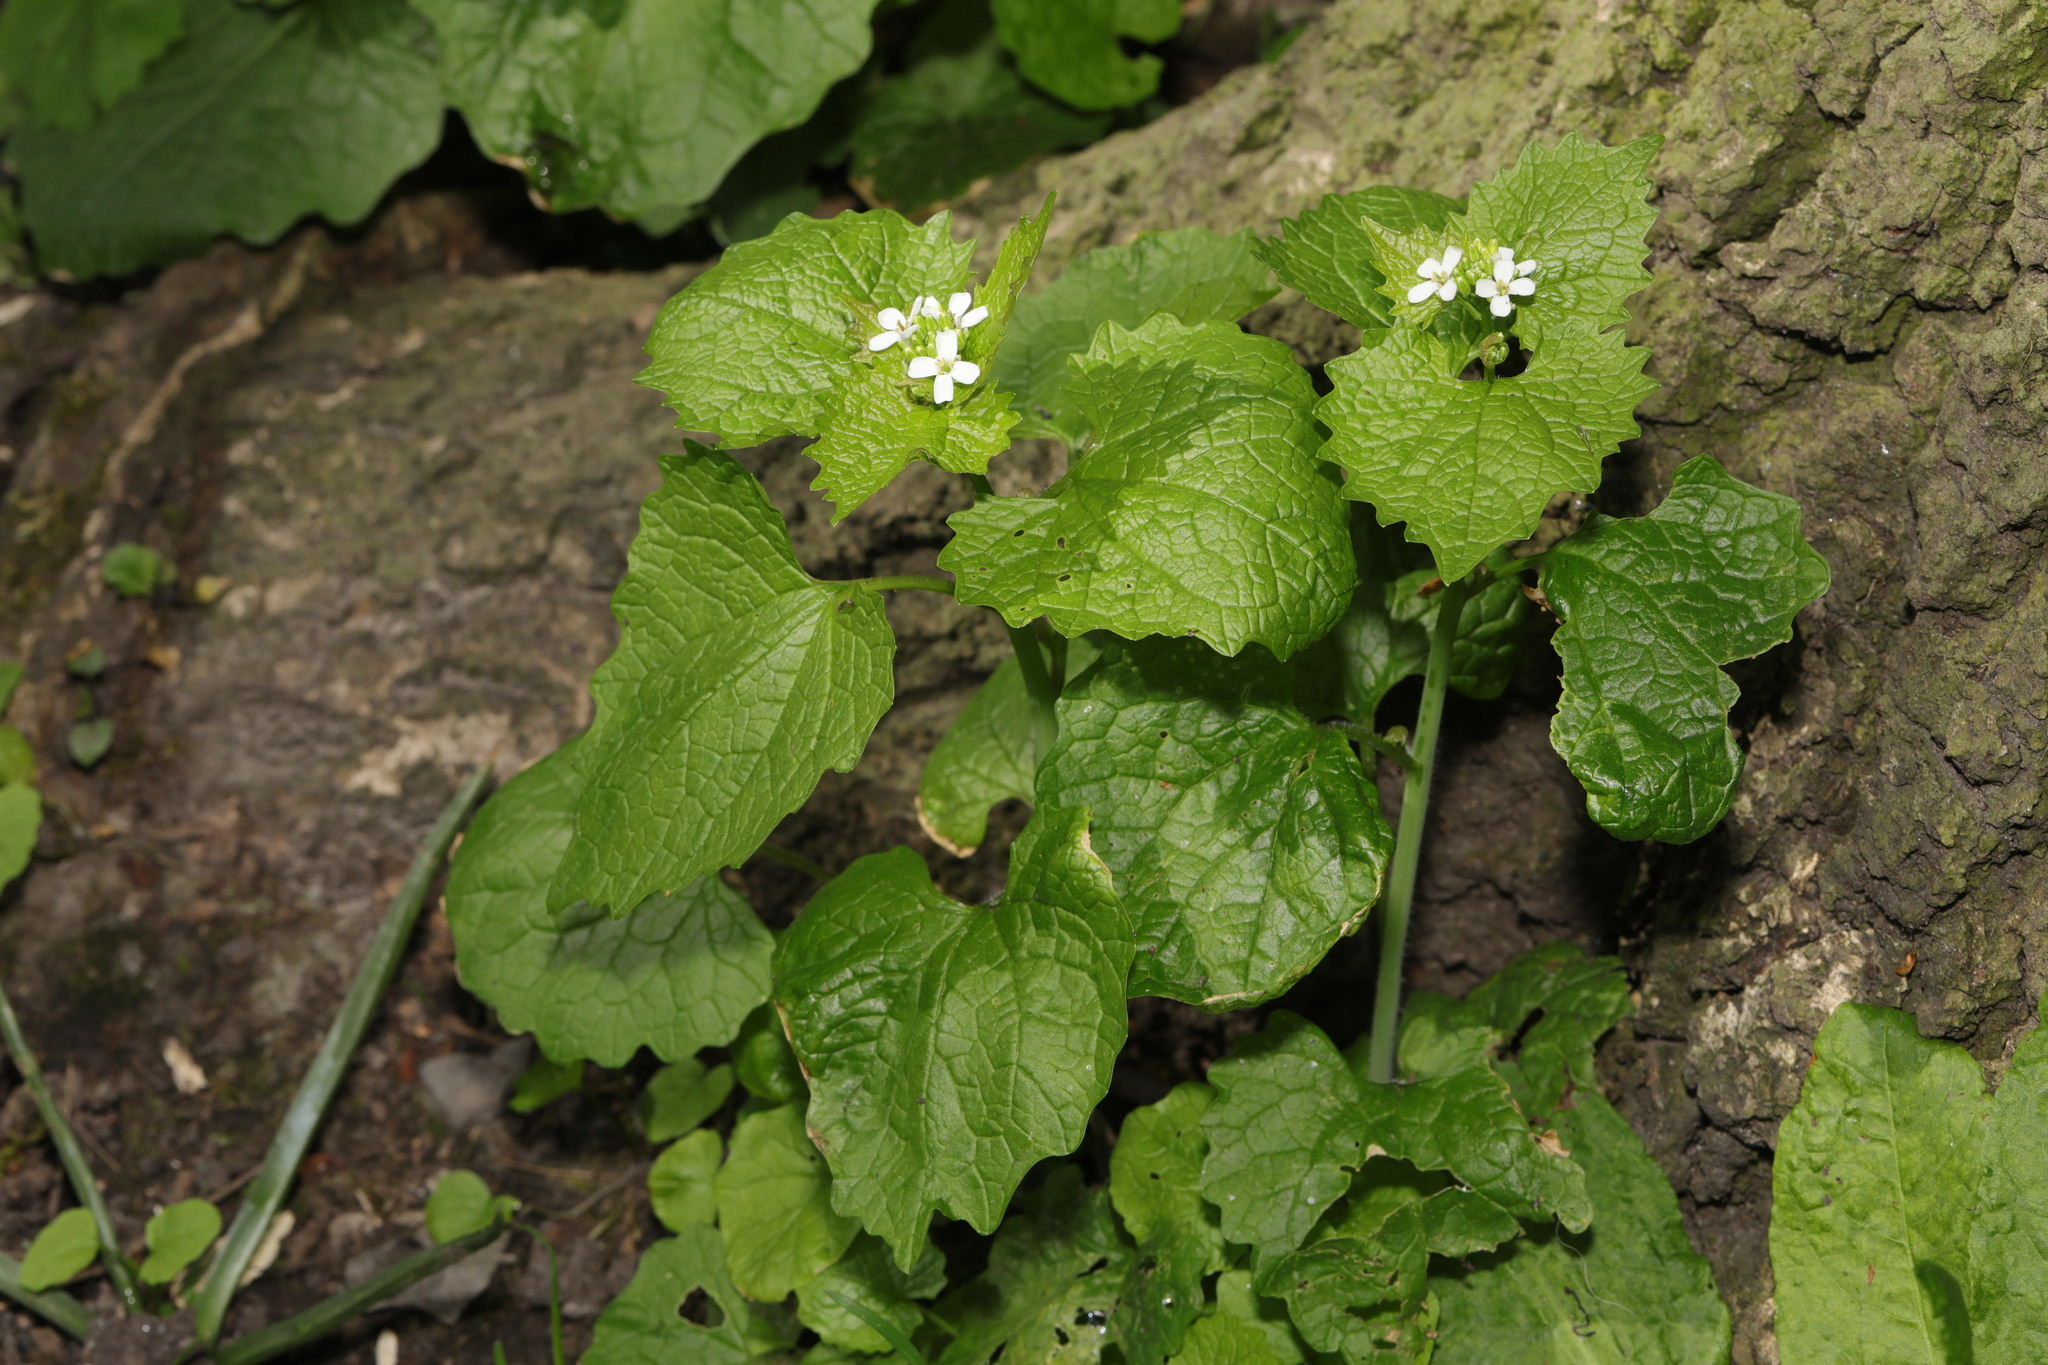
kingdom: Plantae
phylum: Tracheophyta
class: Magnoliopsida
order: Brassicales
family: Brassicaceae
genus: Alliaria
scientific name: Alliaria petiolata
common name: Garlic mustard
